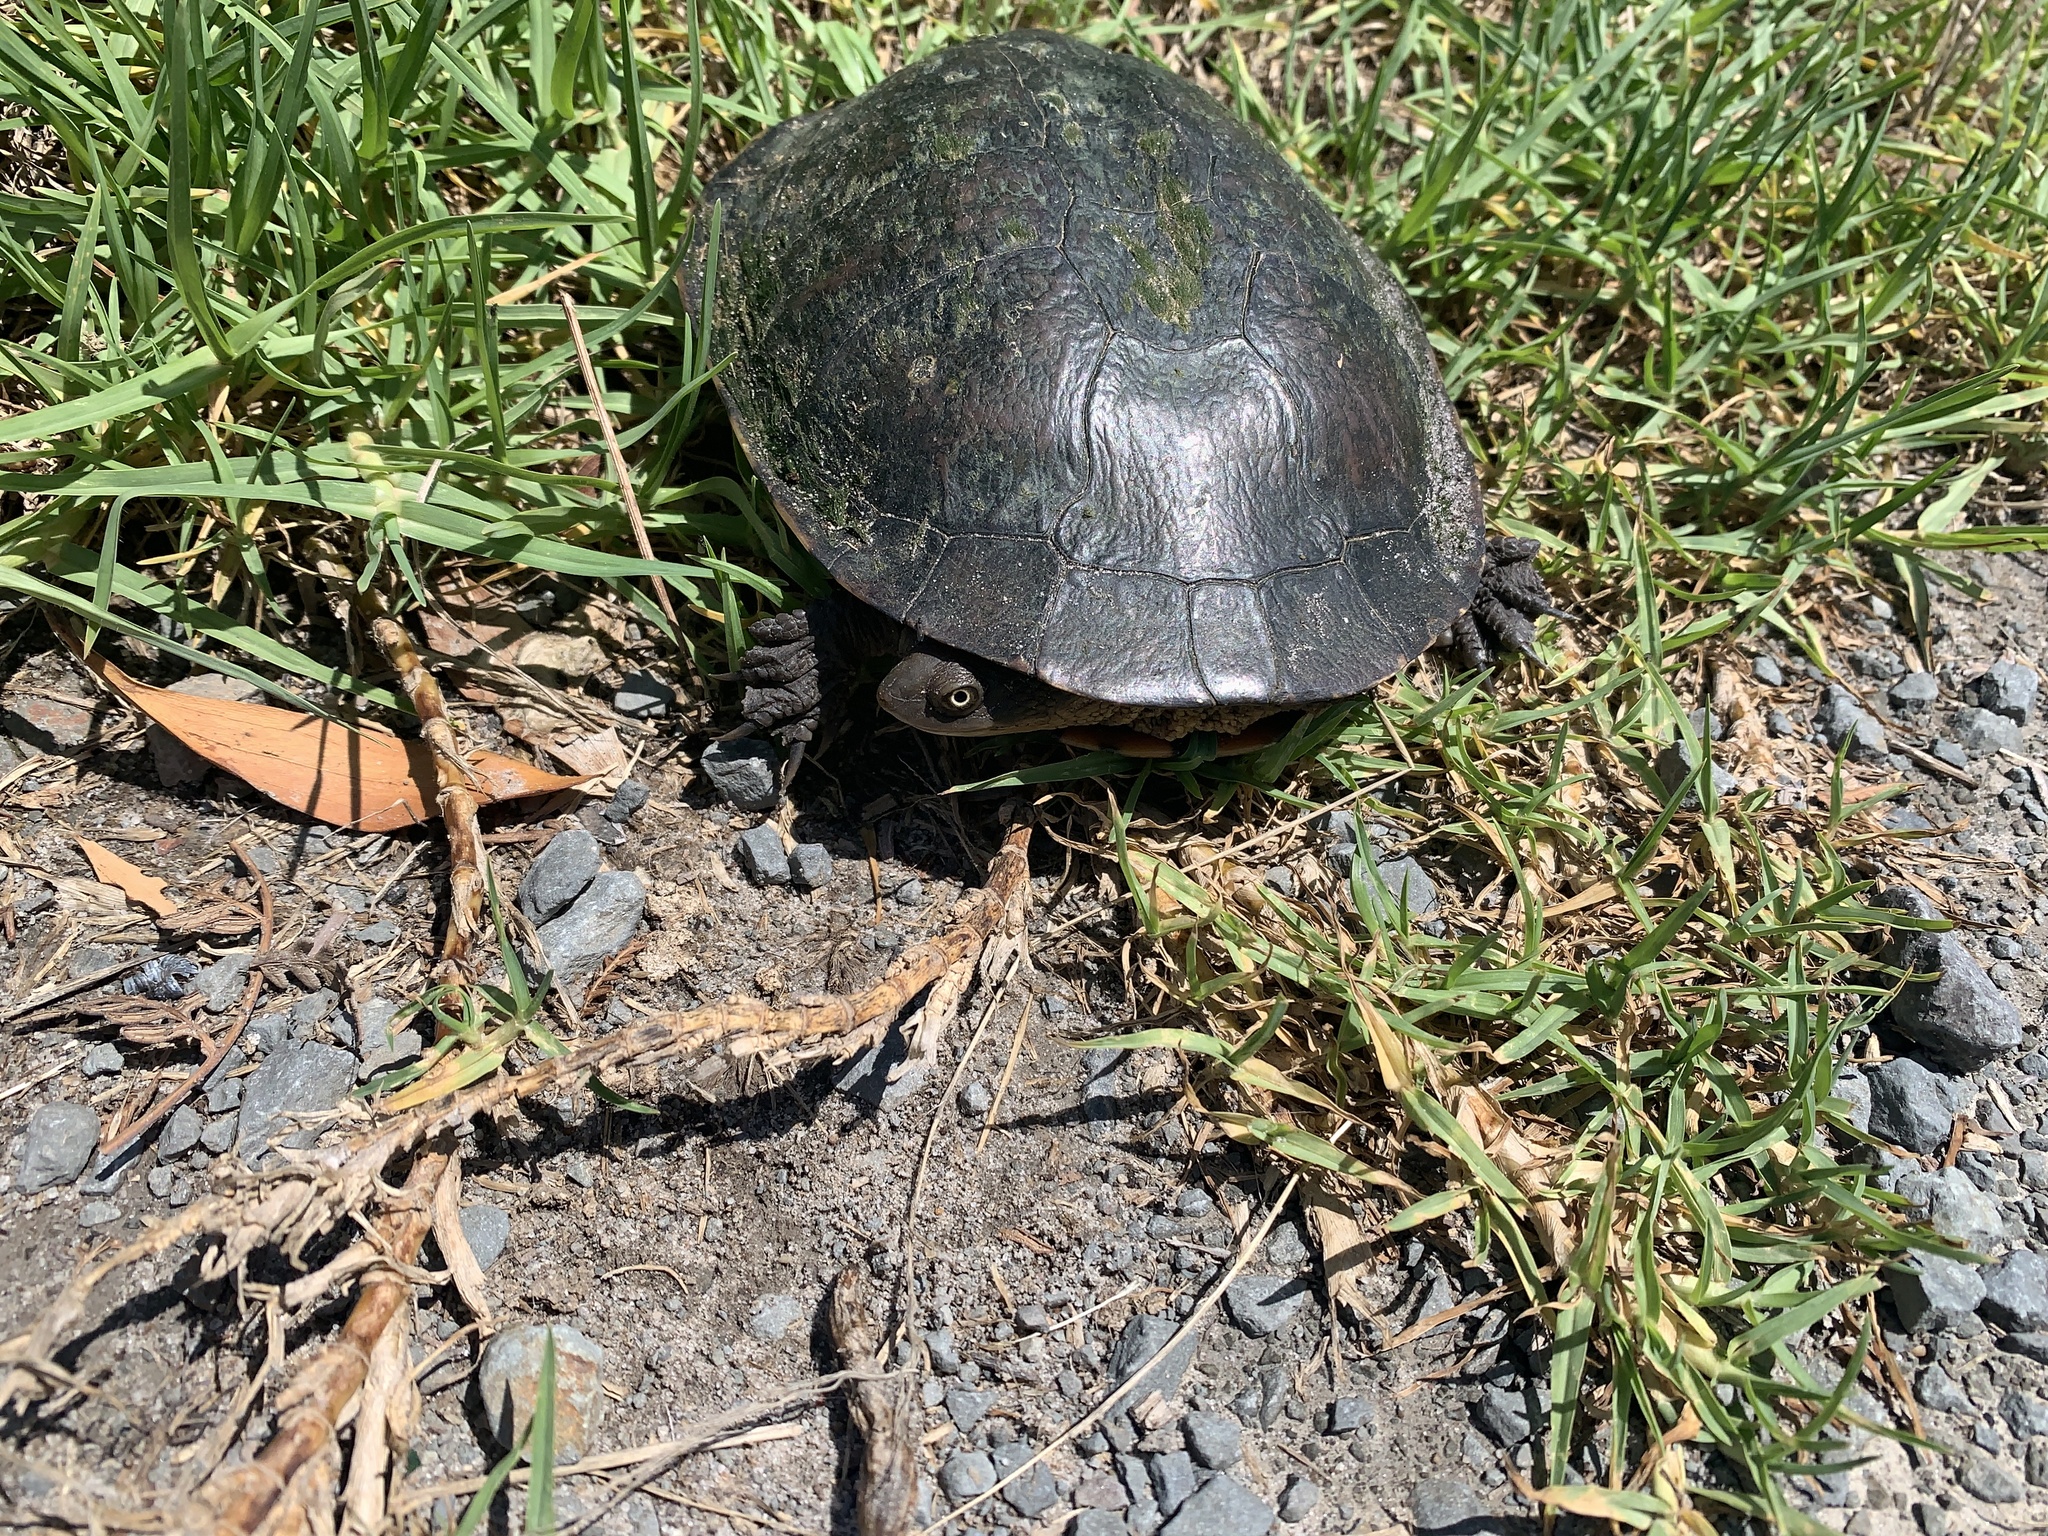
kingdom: Animalia
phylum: Chordata
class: Testudines
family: Chelidae
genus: Chelodina
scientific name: Chelodina longicollis
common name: Eastern snake-necked turtle
